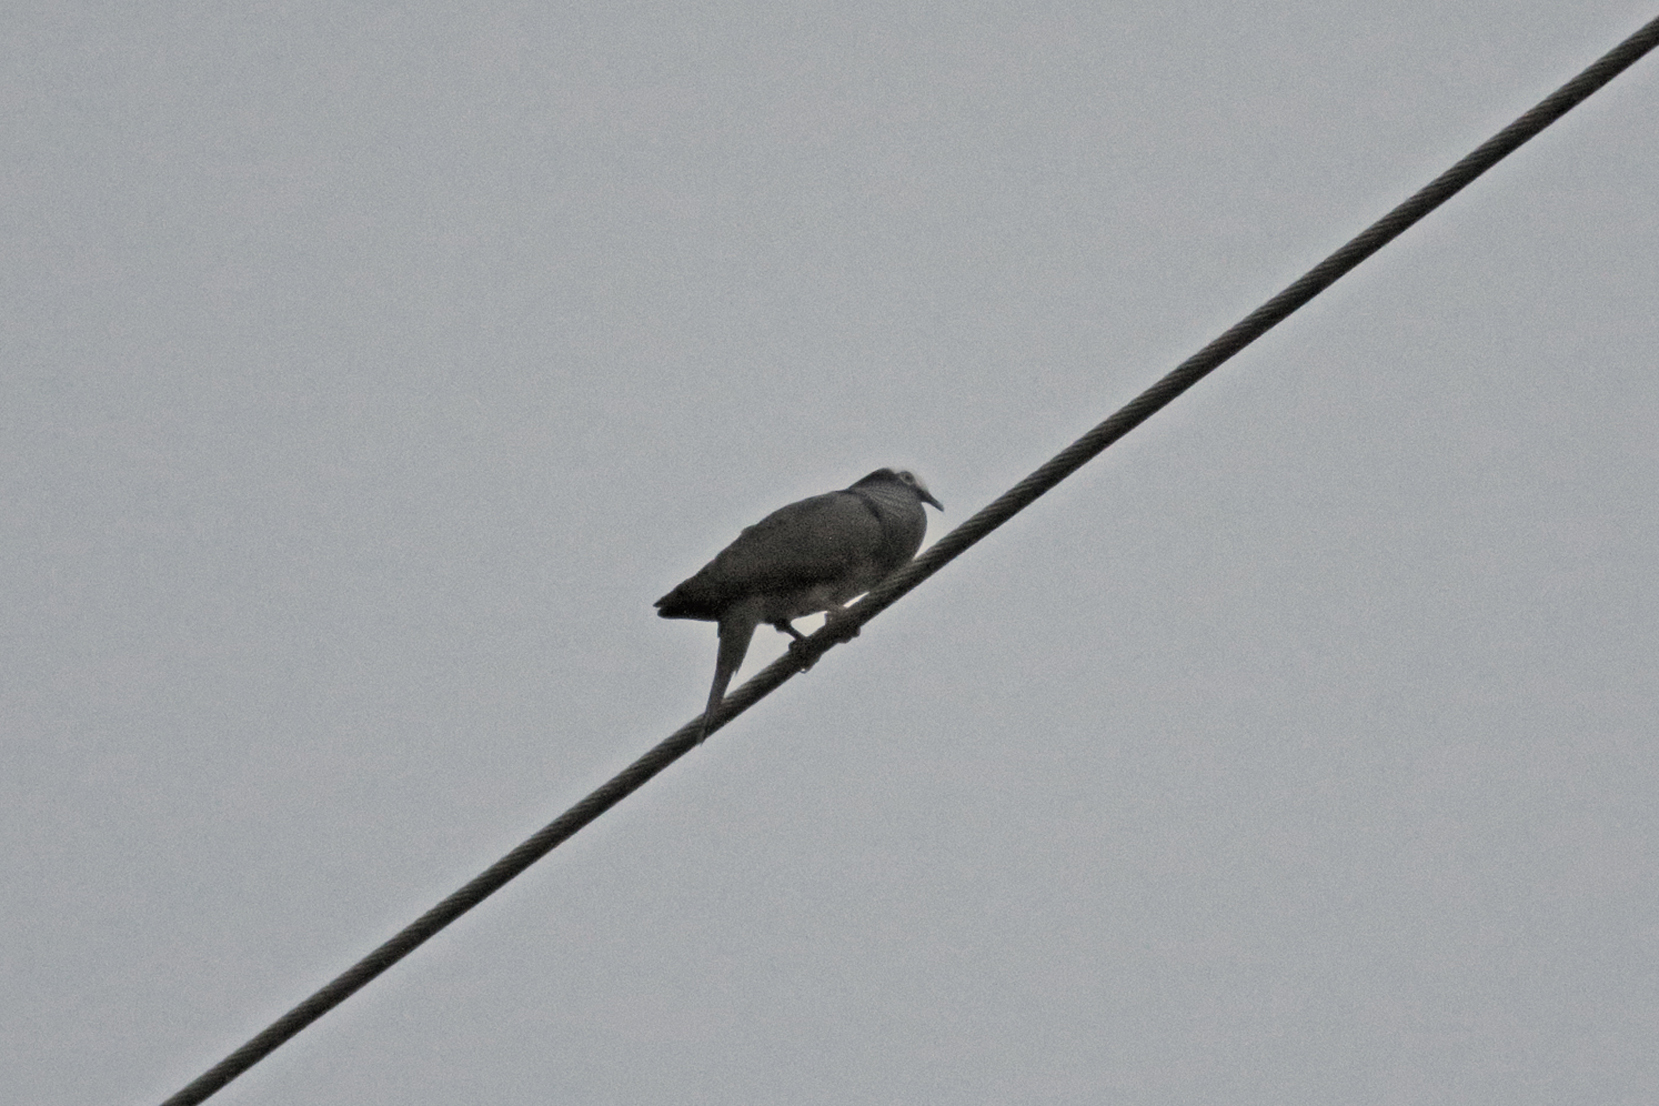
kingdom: Animalia
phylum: Chordata
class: Aves
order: Columbiformes
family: Columbidae
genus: Patagioenas
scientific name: Patagioenas leucocephala
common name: White-crowned pigeon
